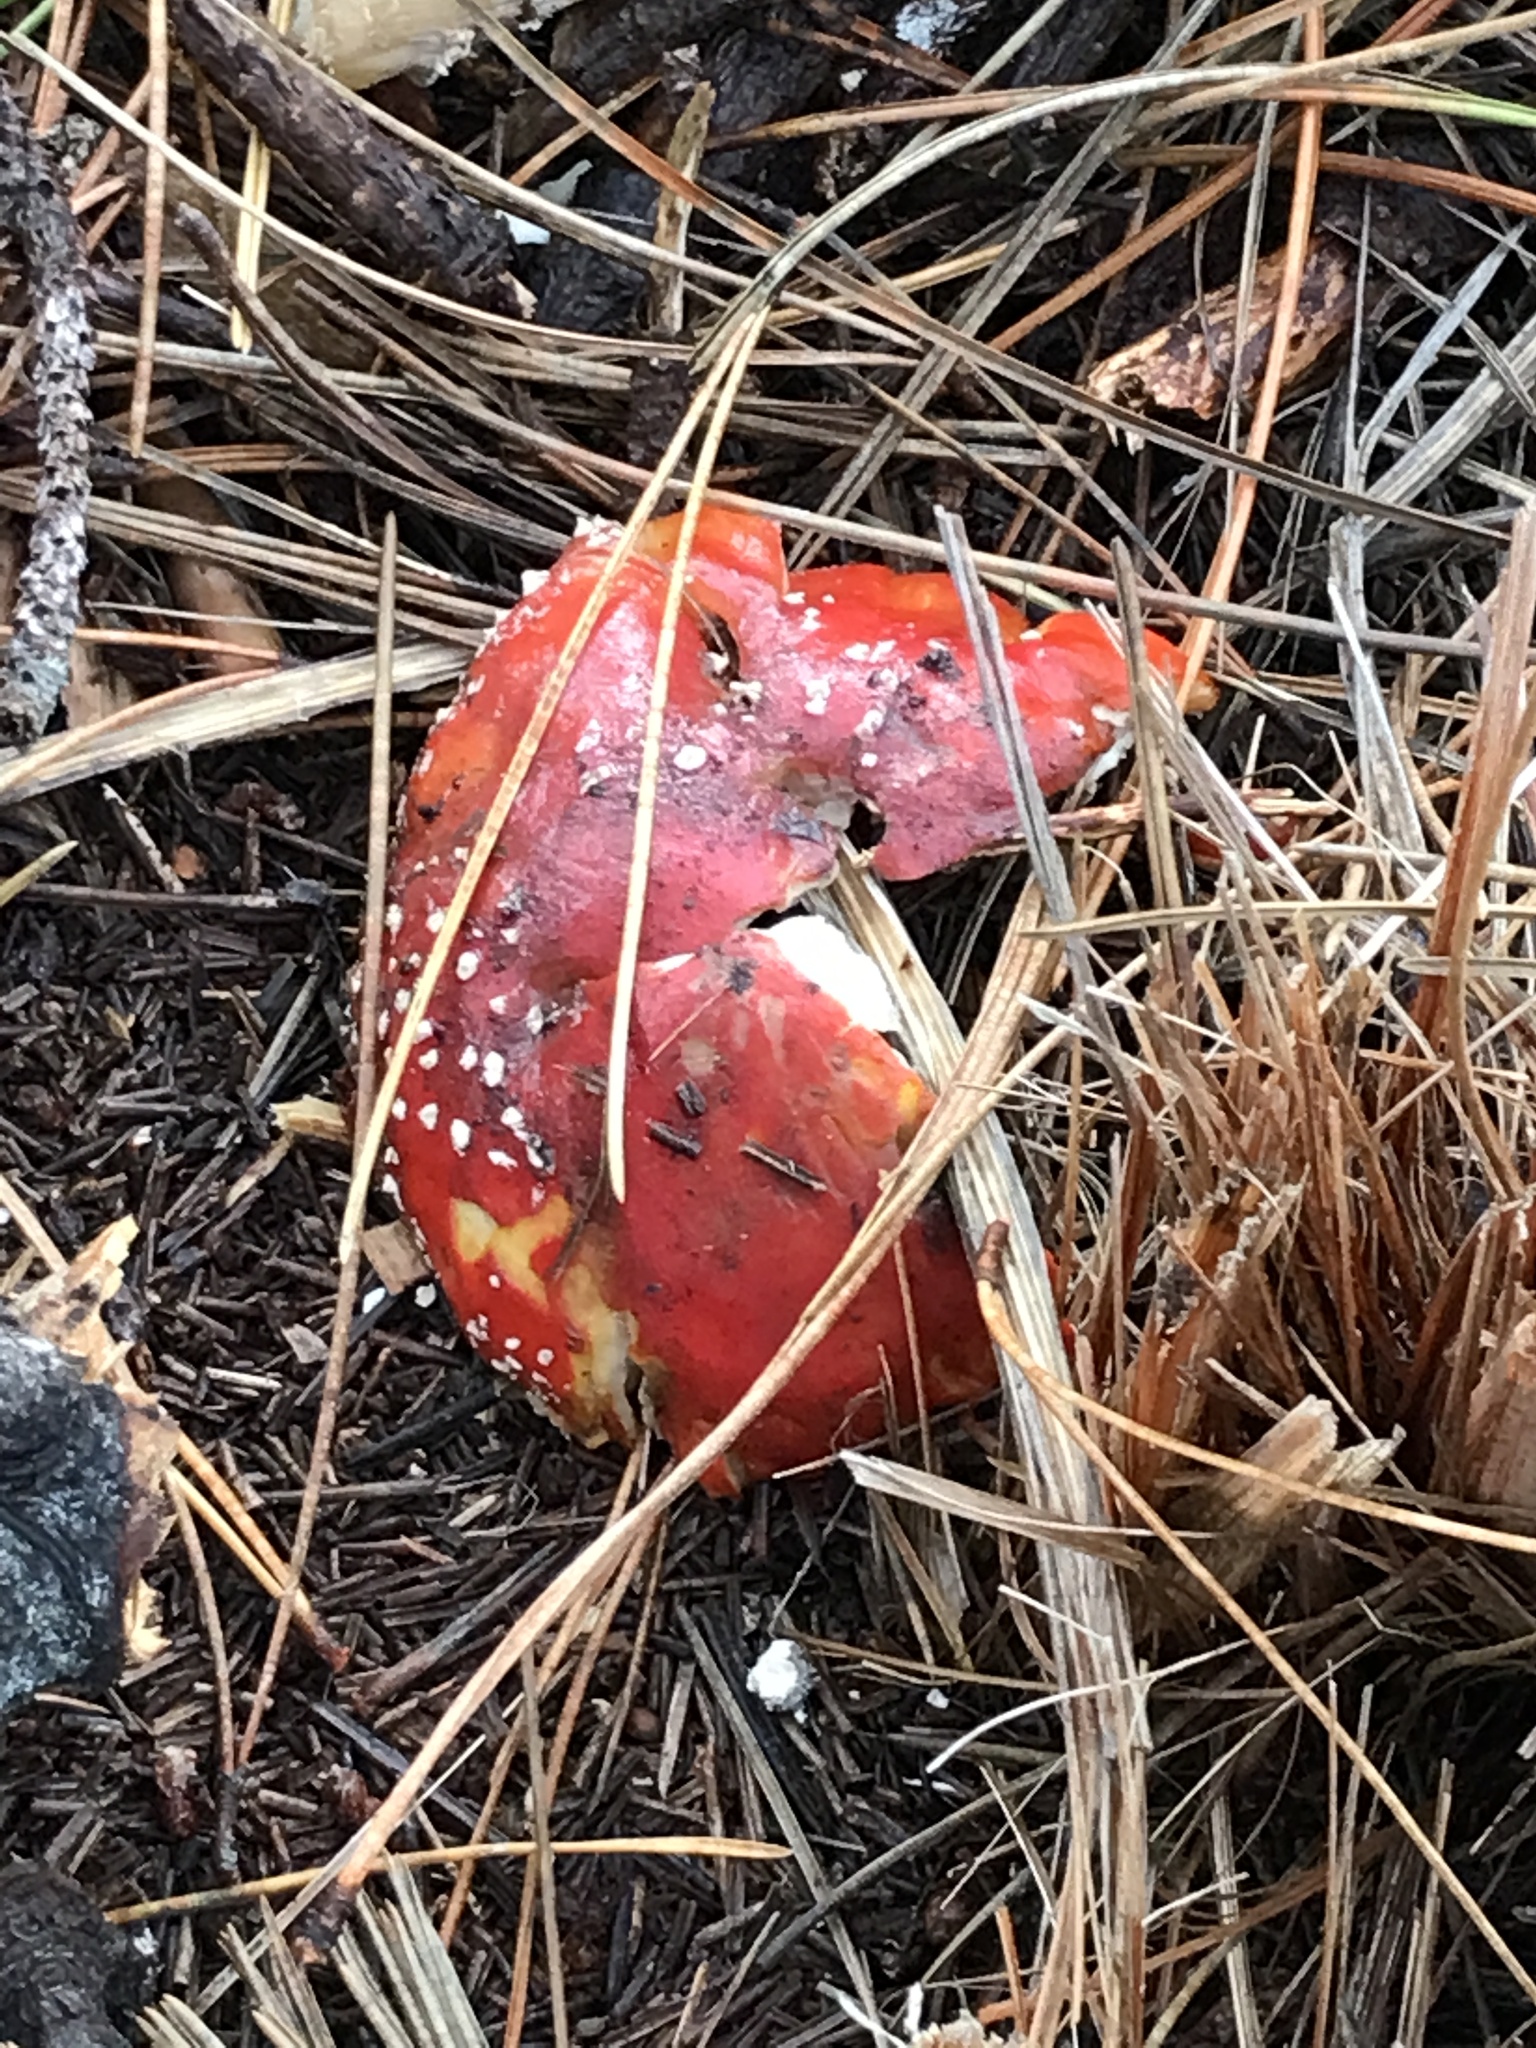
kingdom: Fungi
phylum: Basidiomycota
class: Agaricomycetes
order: Agaricales
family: Amanitaceae
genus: Amanita
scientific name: Amanita muscaria
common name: Fly agaric
